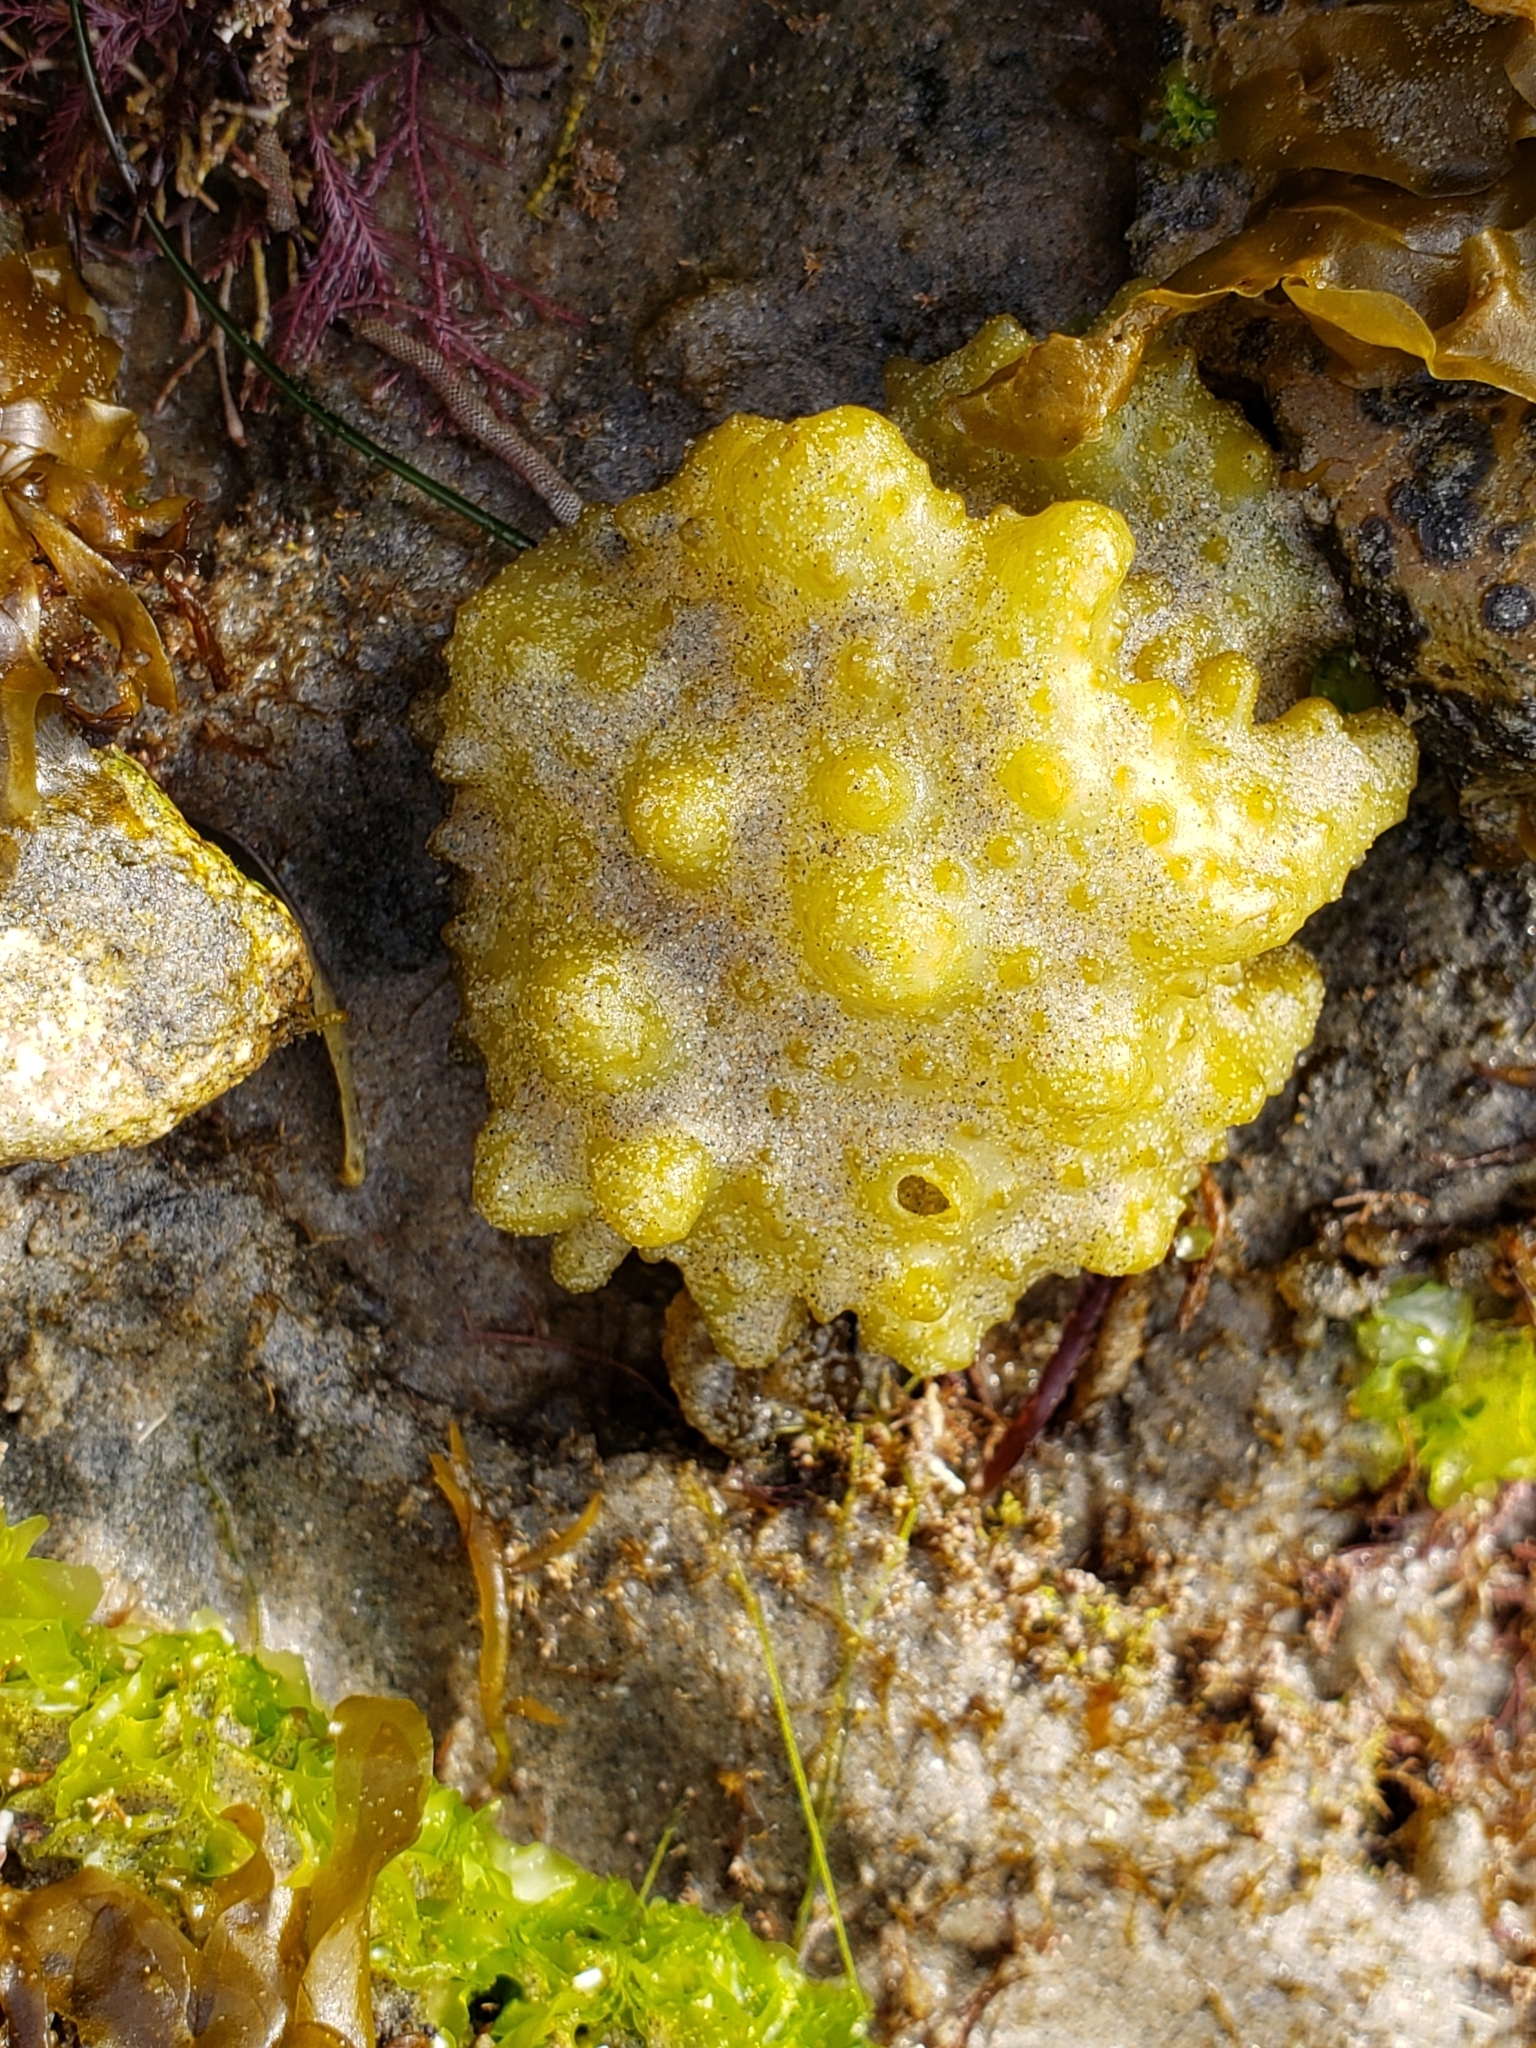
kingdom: Chromista
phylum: Ochrophyta
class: Phaeophyceae
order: Scytosiphonales
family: Scytosiphonaceae
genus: Colpomenia
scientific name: Colpomenia
